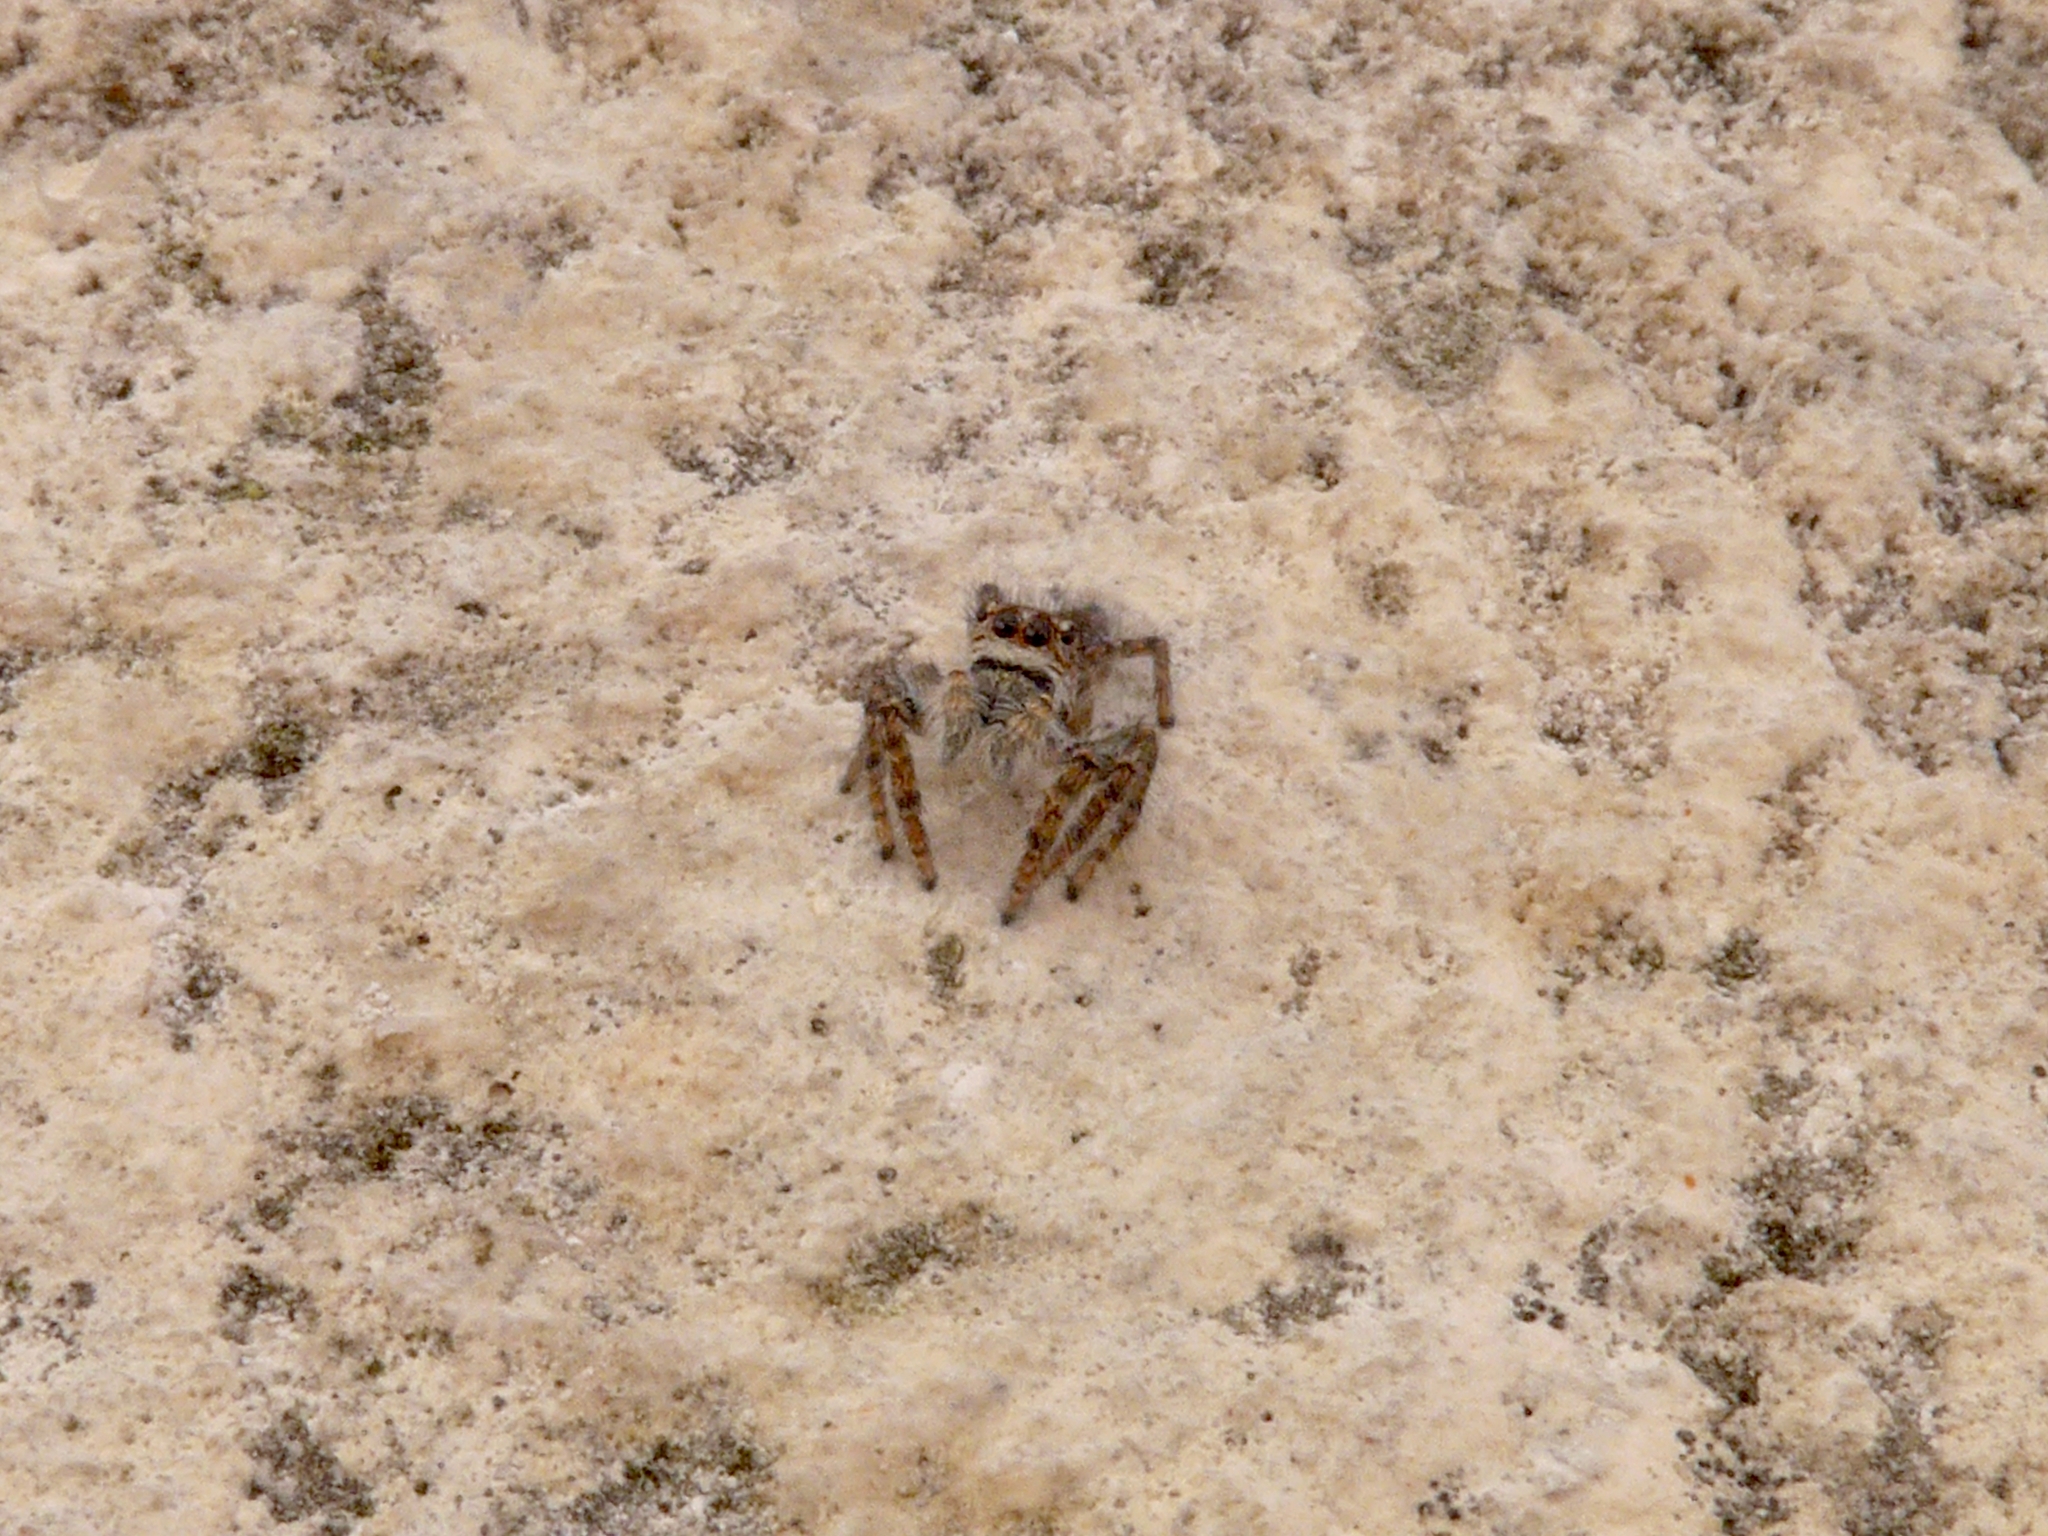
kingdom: Animalia
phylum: Arthropoda
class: Arachnida
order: Araneae
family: Salticidae
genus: Philaeus
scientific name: Philaeus chrysops
